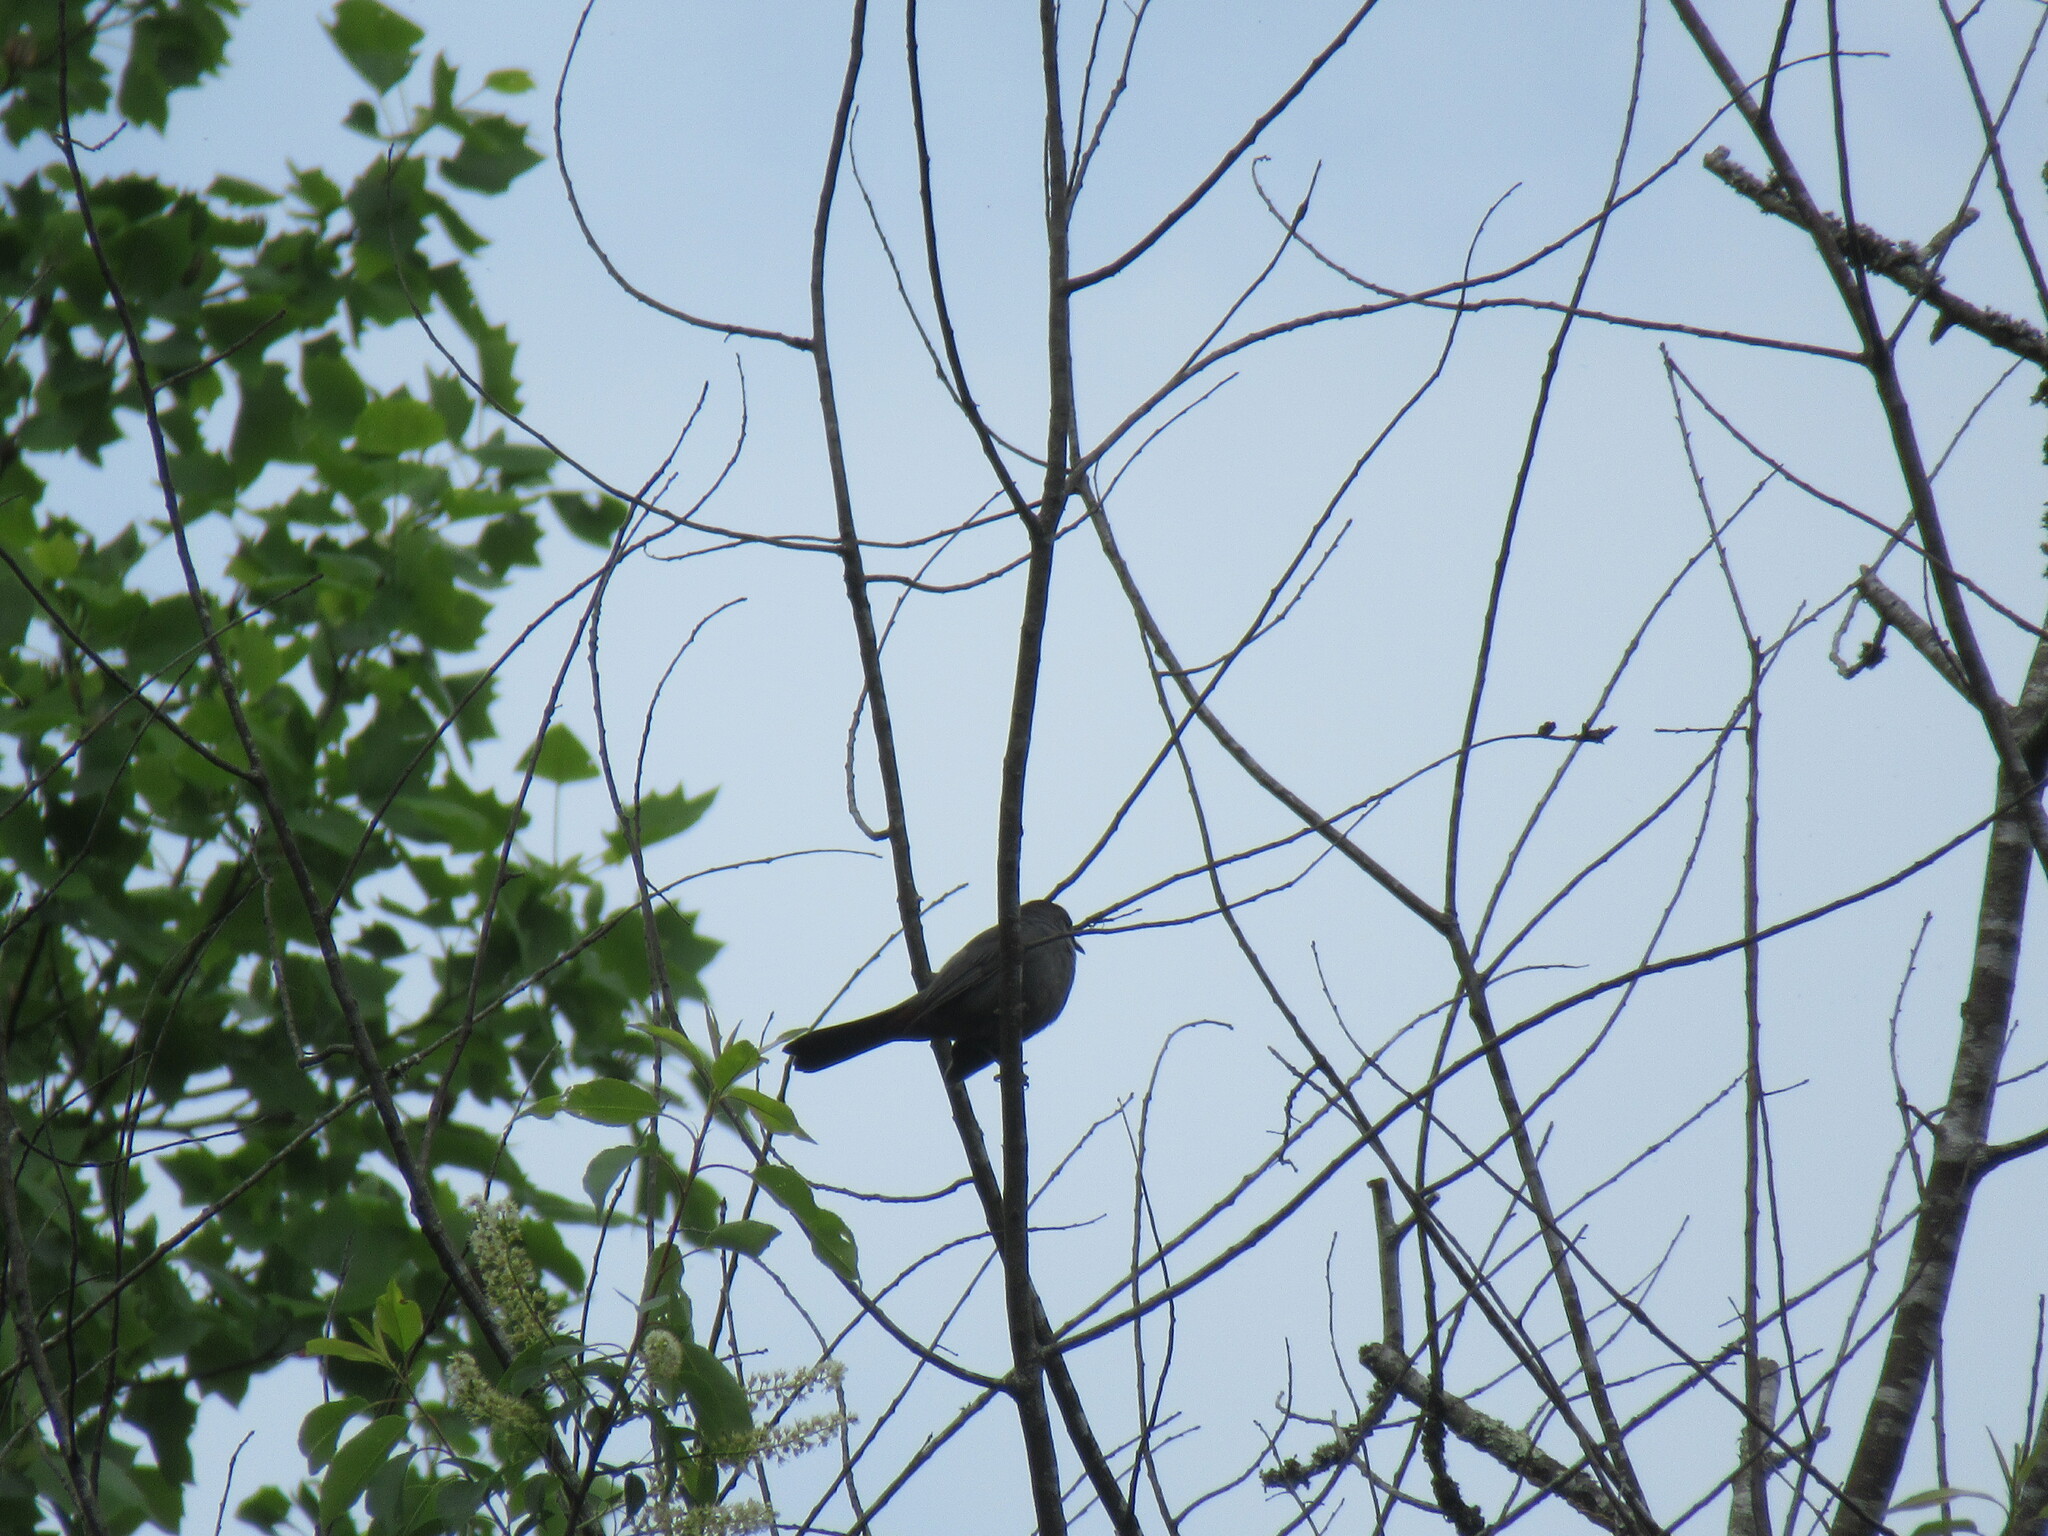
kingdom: Animalia
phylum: Chordata
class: Aves
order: Passeriformes
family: Mimidae
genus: Dumetella
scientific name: Dumetella carolinensis
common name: Gray catbird
